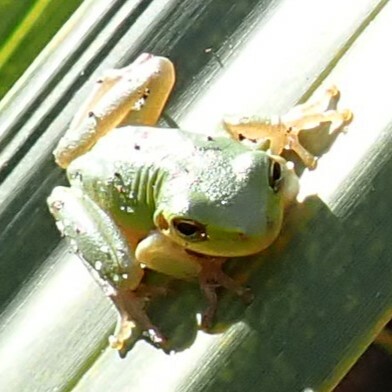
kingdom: Animalia
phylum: Chordata
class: Amphibia
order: Anura
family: Hylidae
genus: Dryophytes
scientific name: Dryophytes squirellus
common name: Squirrel treefrog
